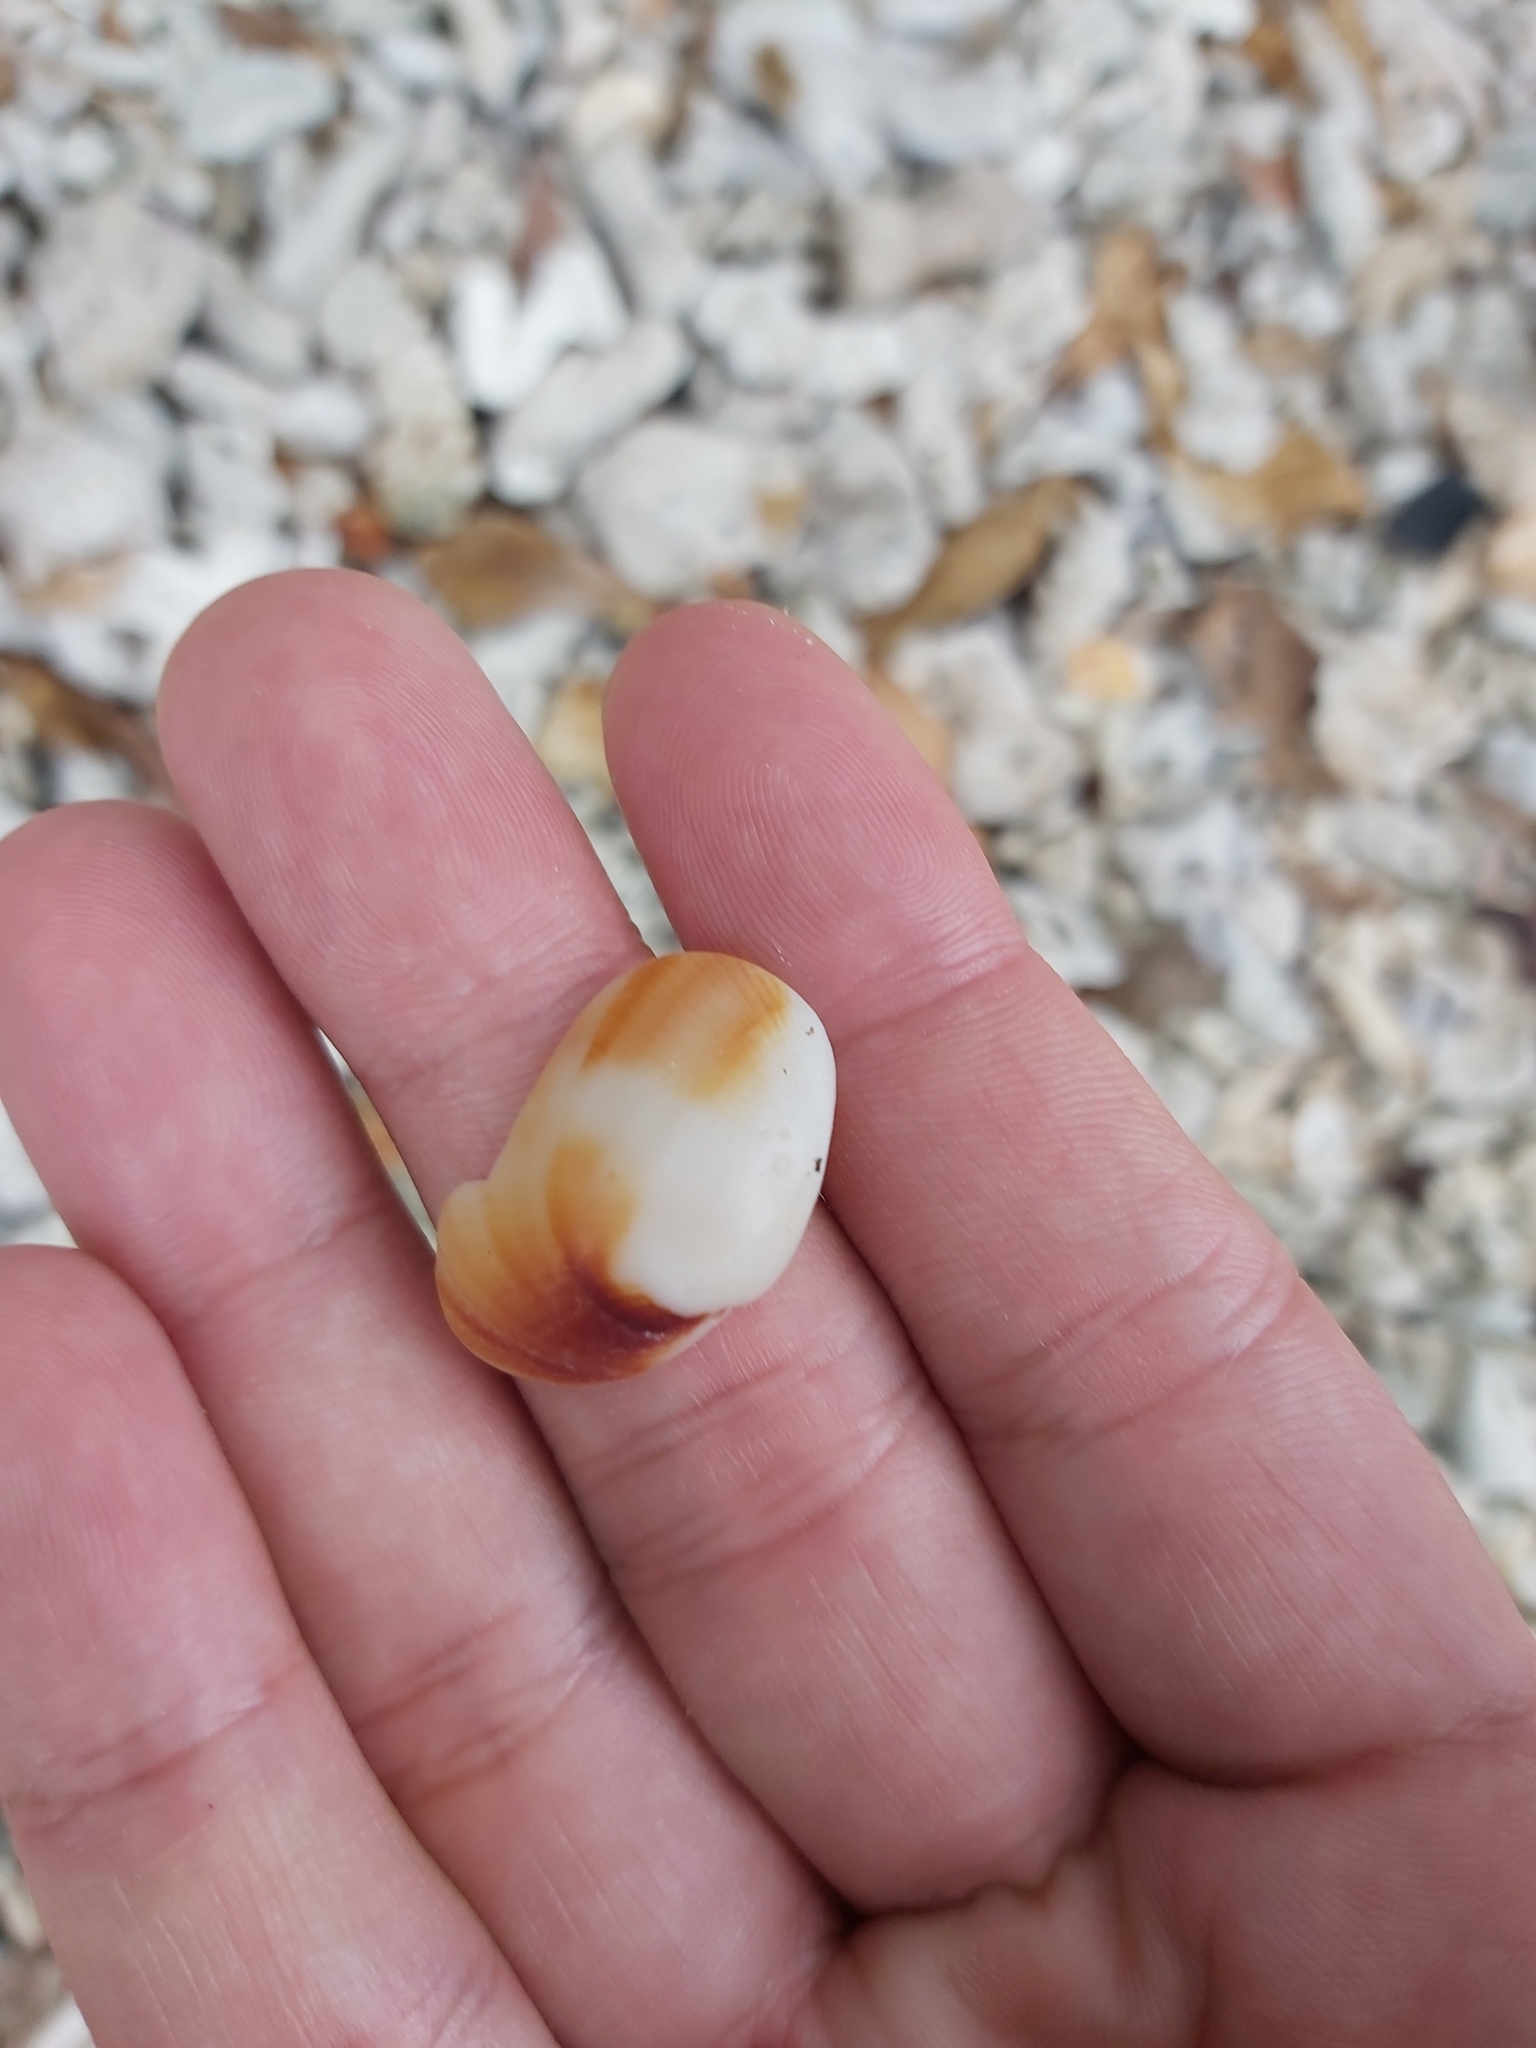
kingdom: Animalia
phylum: Mollusca
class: Bivalvia
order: Arcida
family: Arcidae
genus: Barbatia
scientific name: Barbatia amygdalumtostum
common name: Burnt-almond ark
